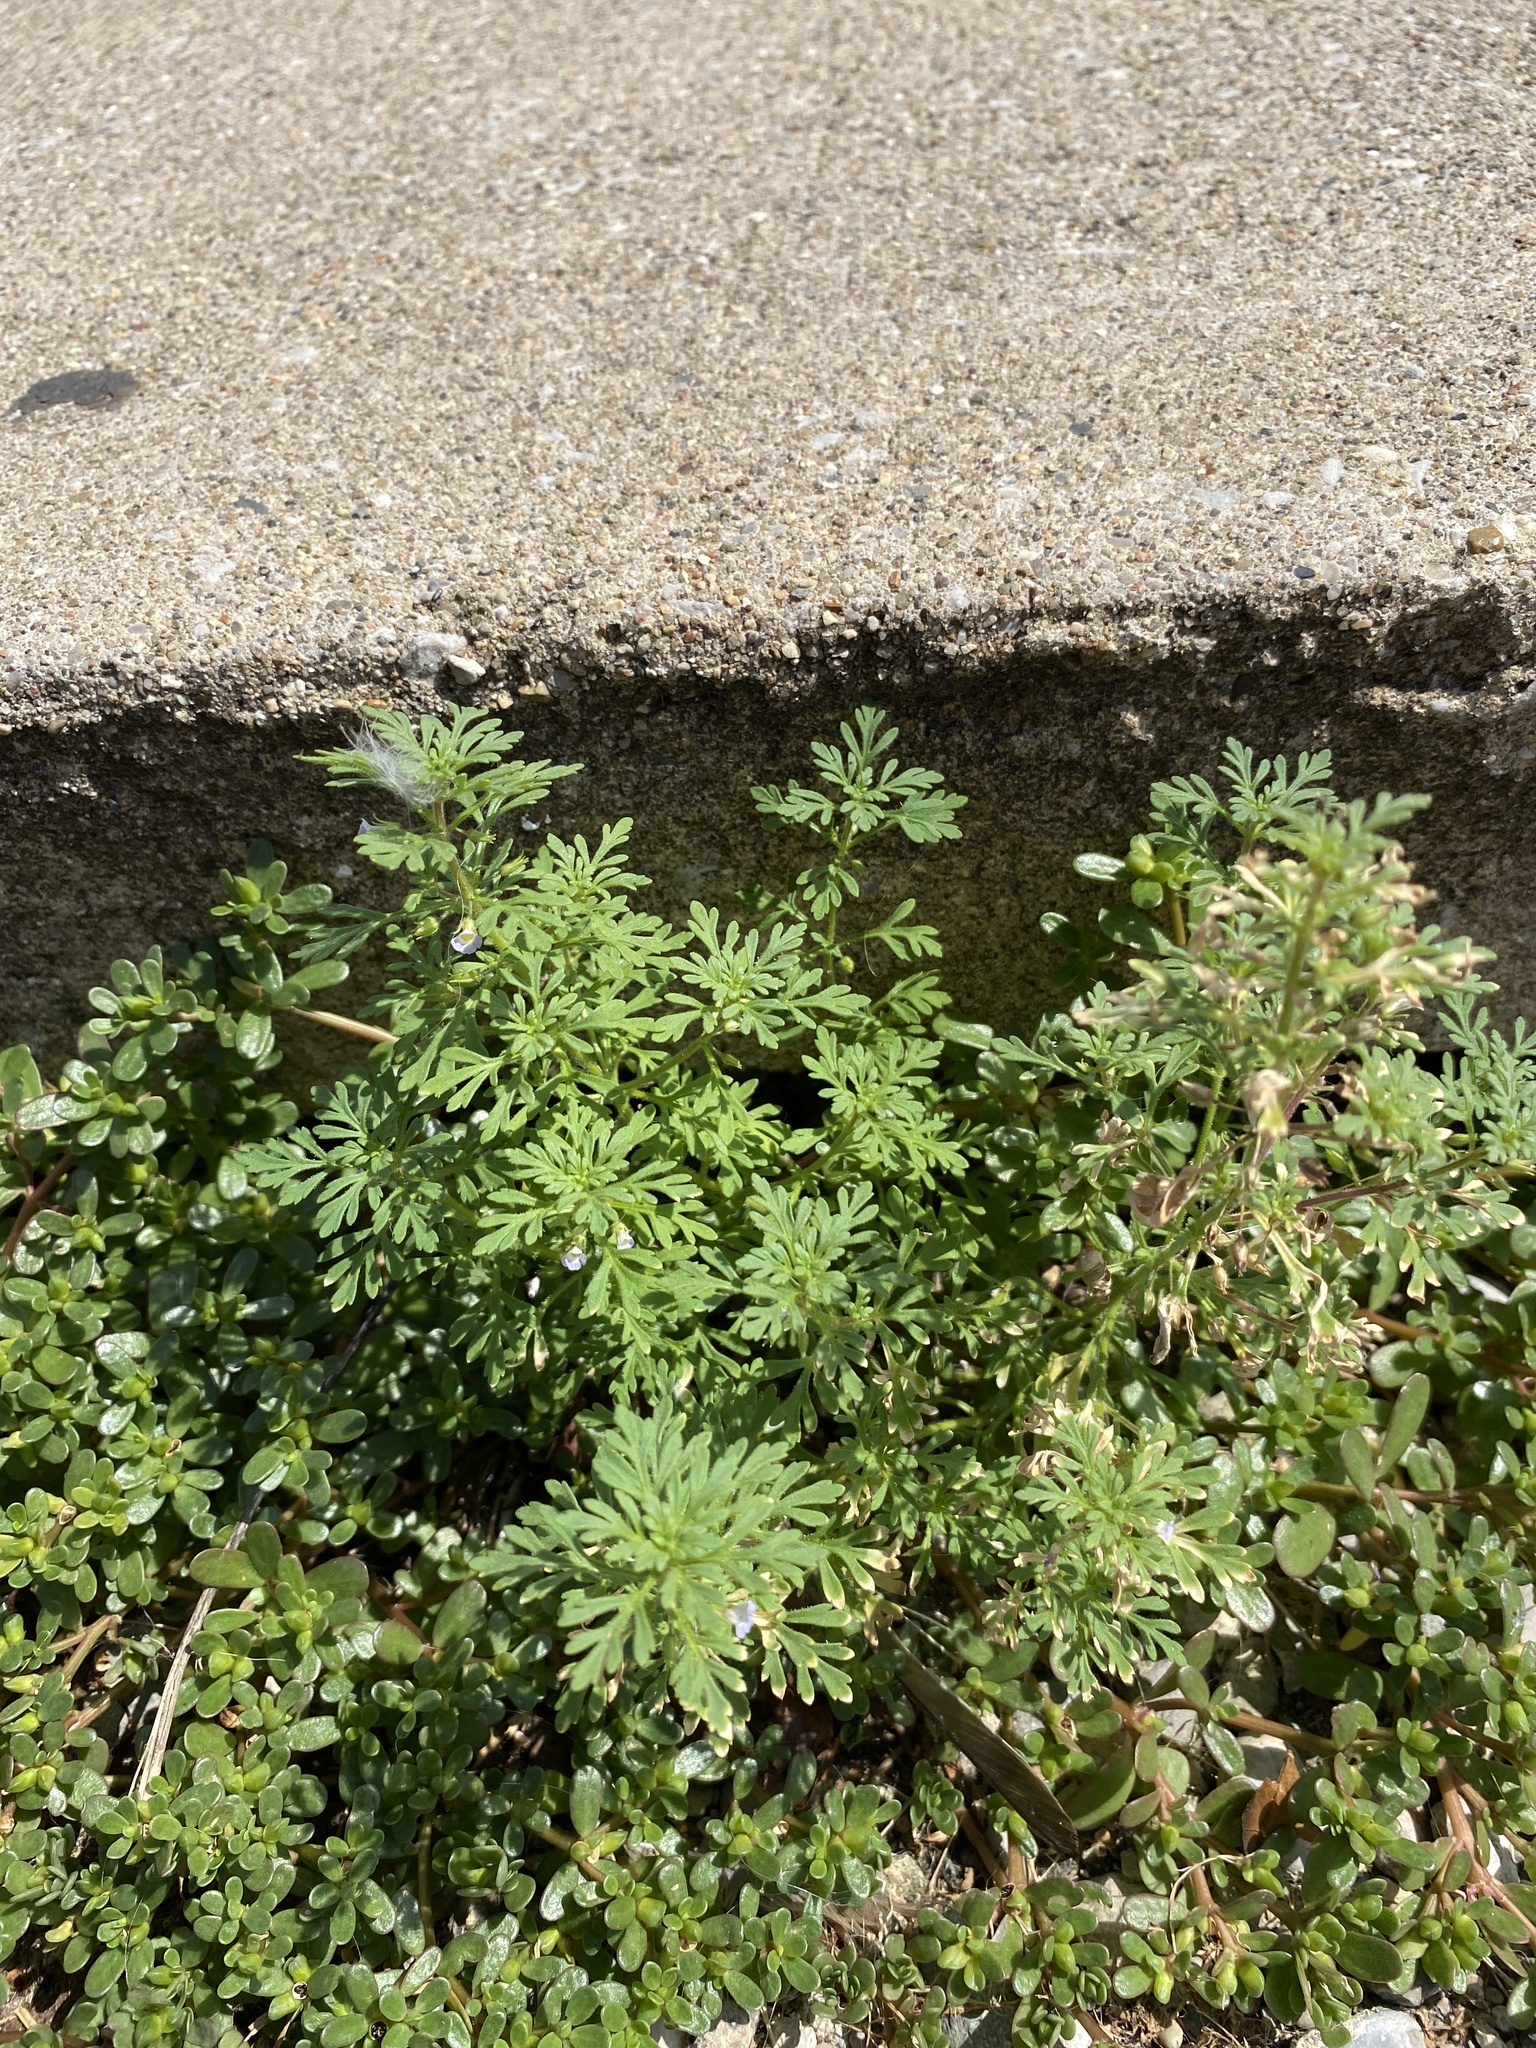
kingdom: Plantae
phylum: Tracheophyta
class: Magnoliopsida
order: Lamiales
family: Plantaginaceae
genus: Leucospora
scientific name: Leucospora multifida
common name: Narrow-leaf paleseed
